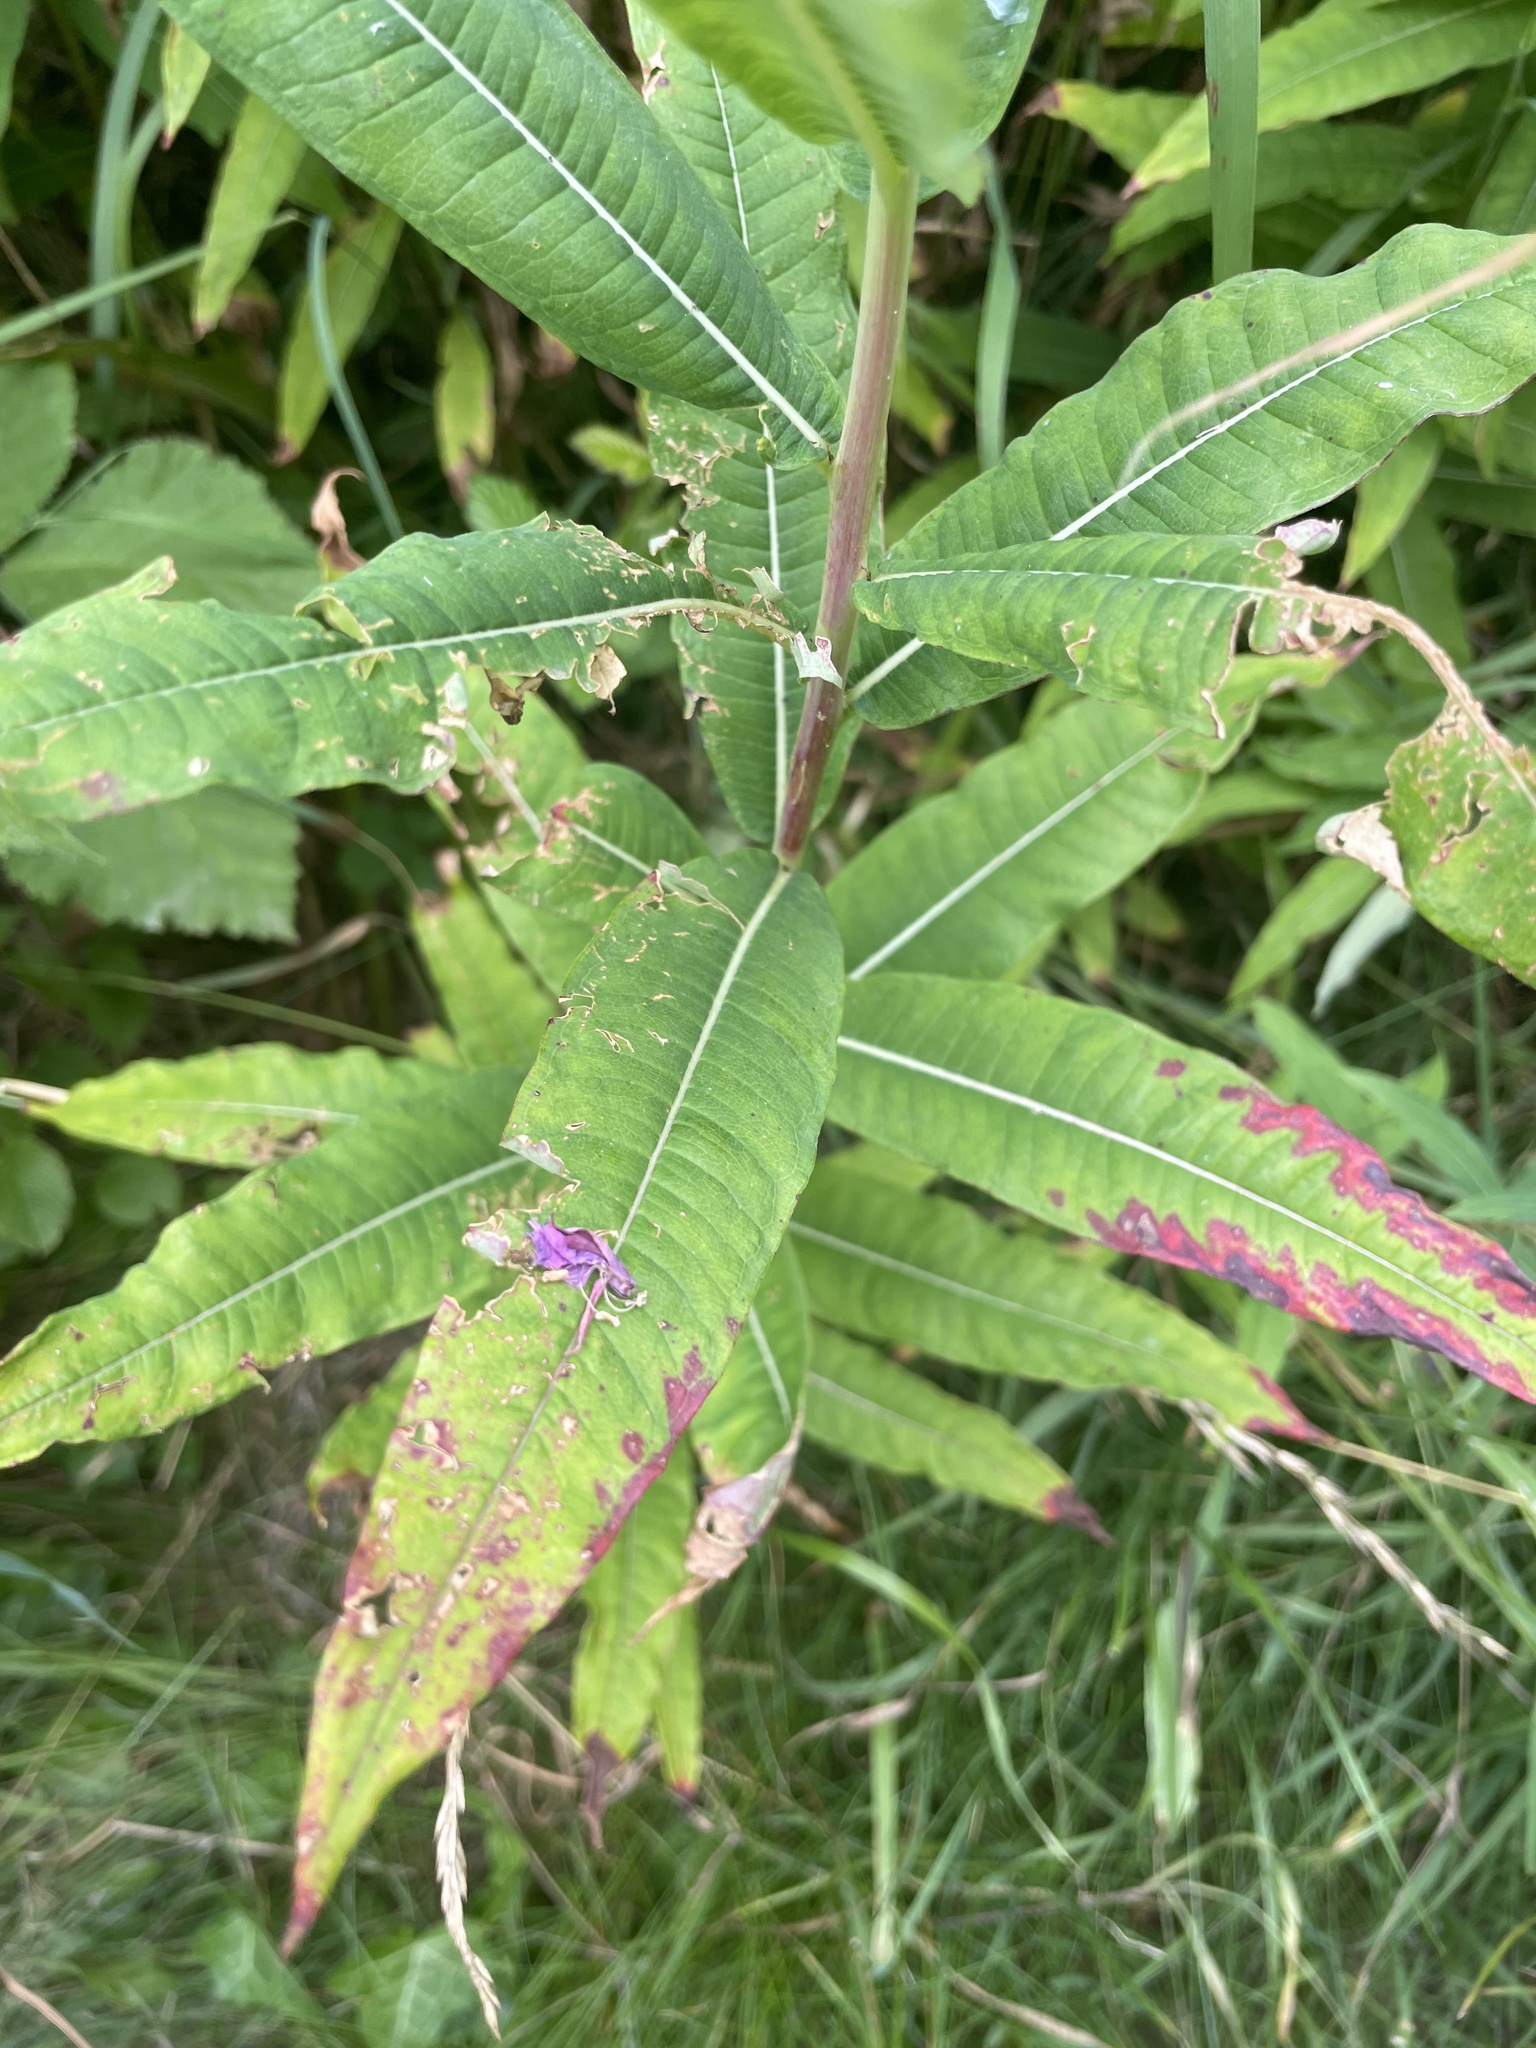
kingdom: Plantae
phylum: Tracheophyta
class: Magnoliopsida
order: Myrtales
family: Onagraceae
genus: Chamaenerion
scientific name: Chamaenerion angustifolium
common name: Fireweed
